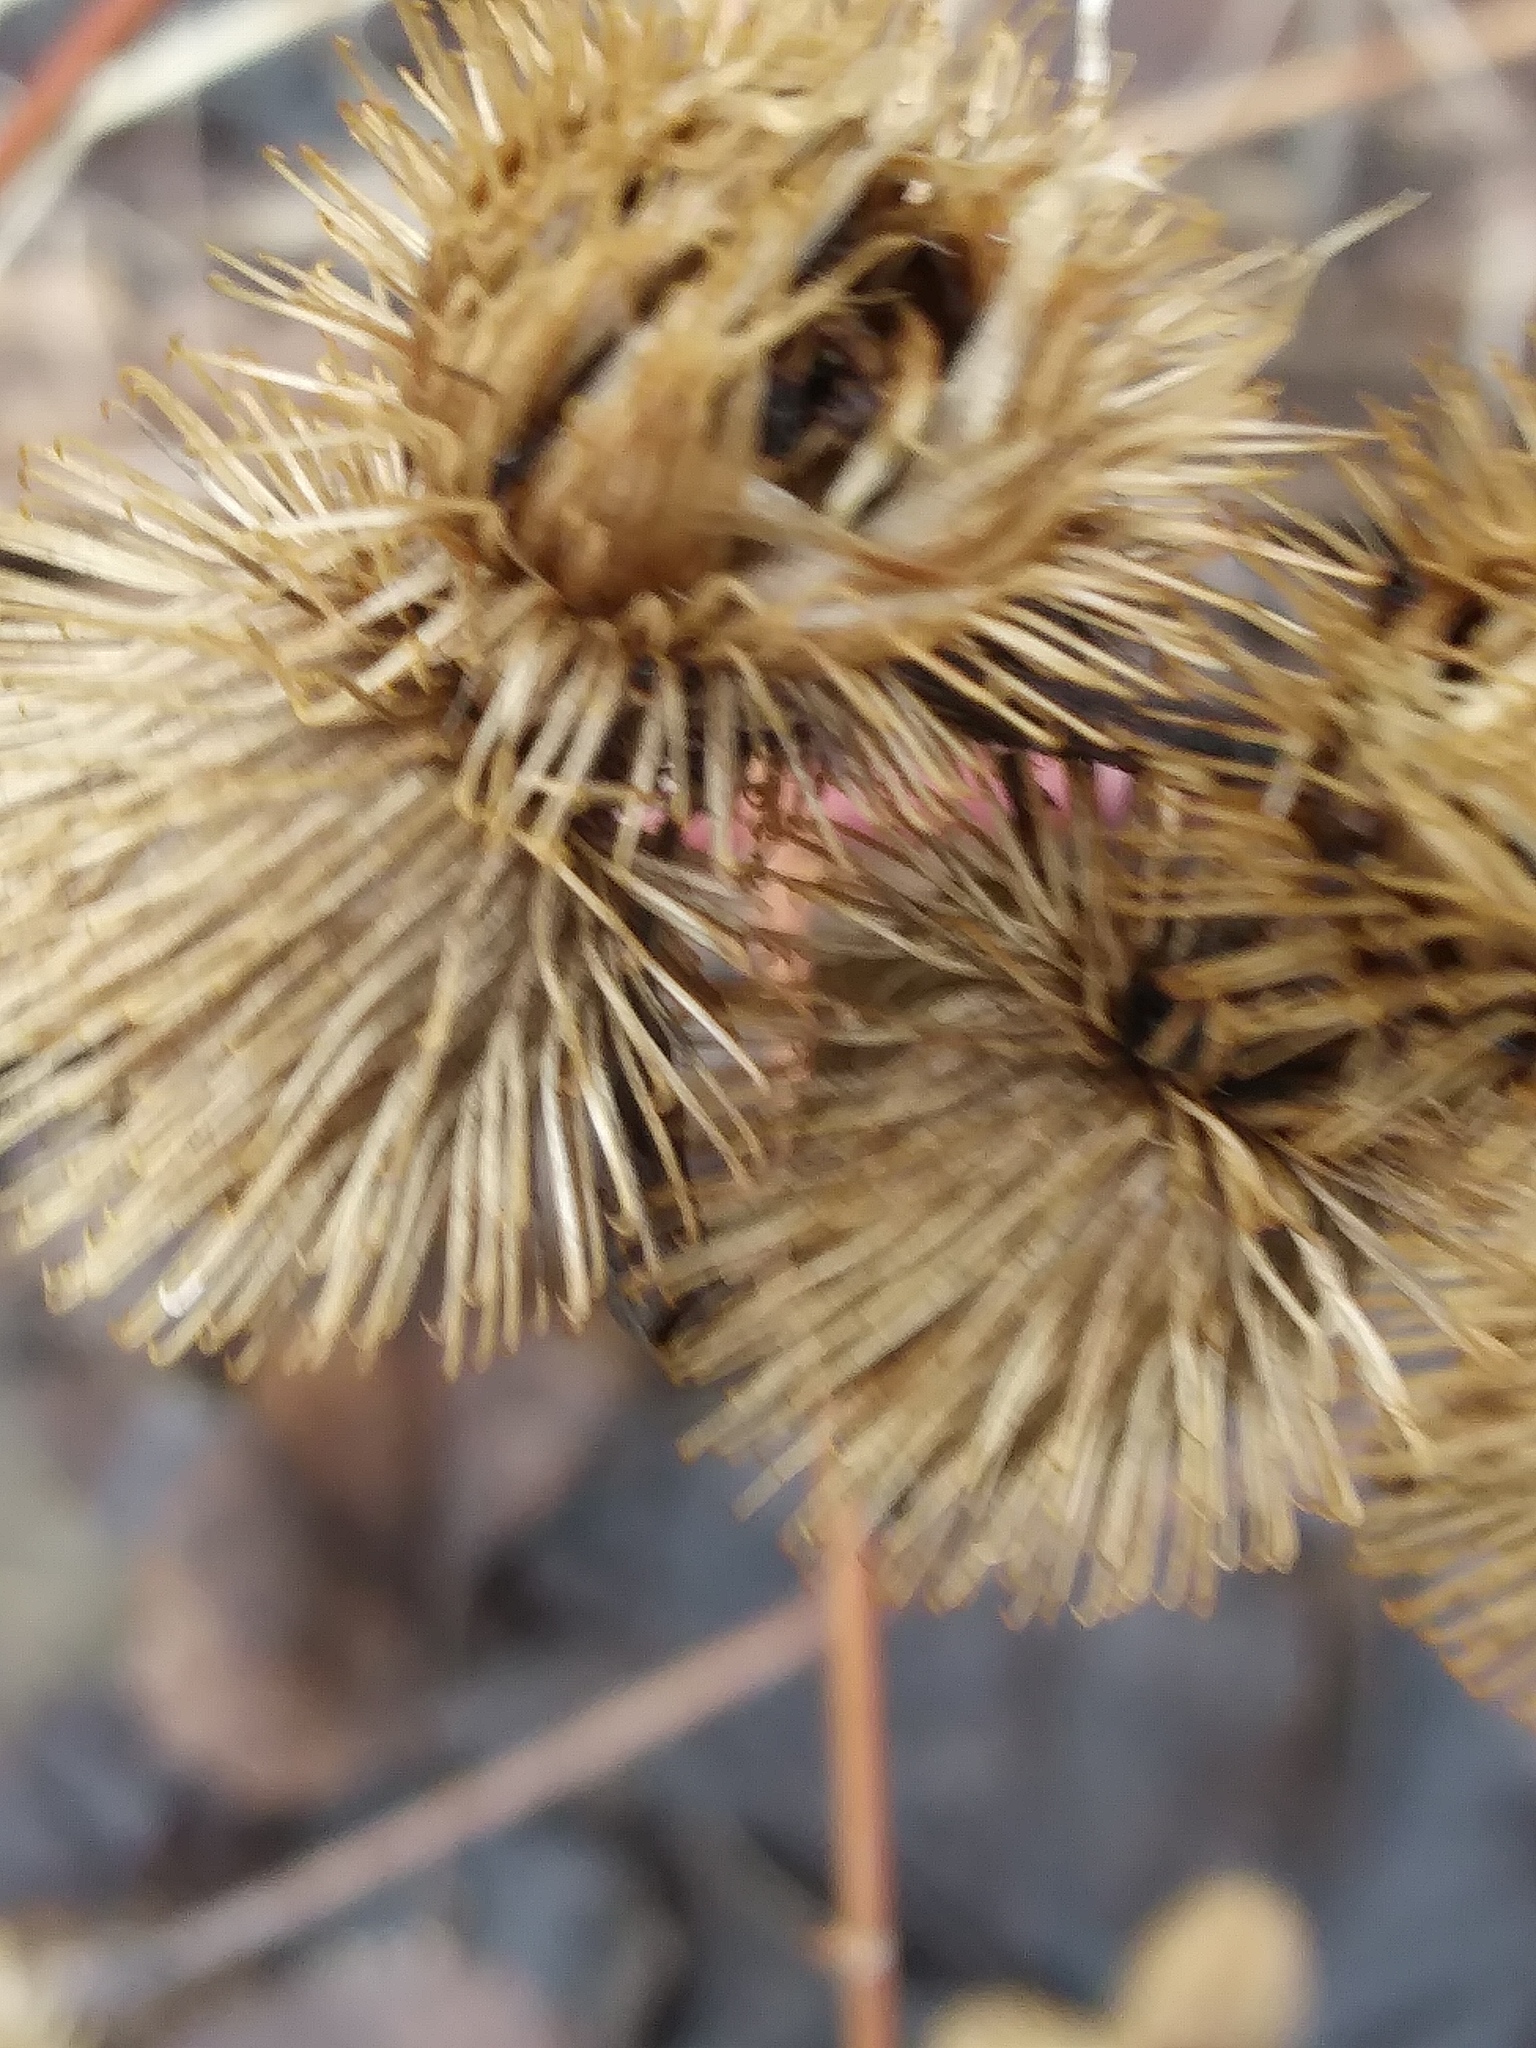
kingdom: Plantae
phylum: Tracheophyta
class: Magnoliopsida
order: Asterales
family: Asteraceae
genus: Arctium
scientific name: Arctium minus
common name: Lesser burdock
